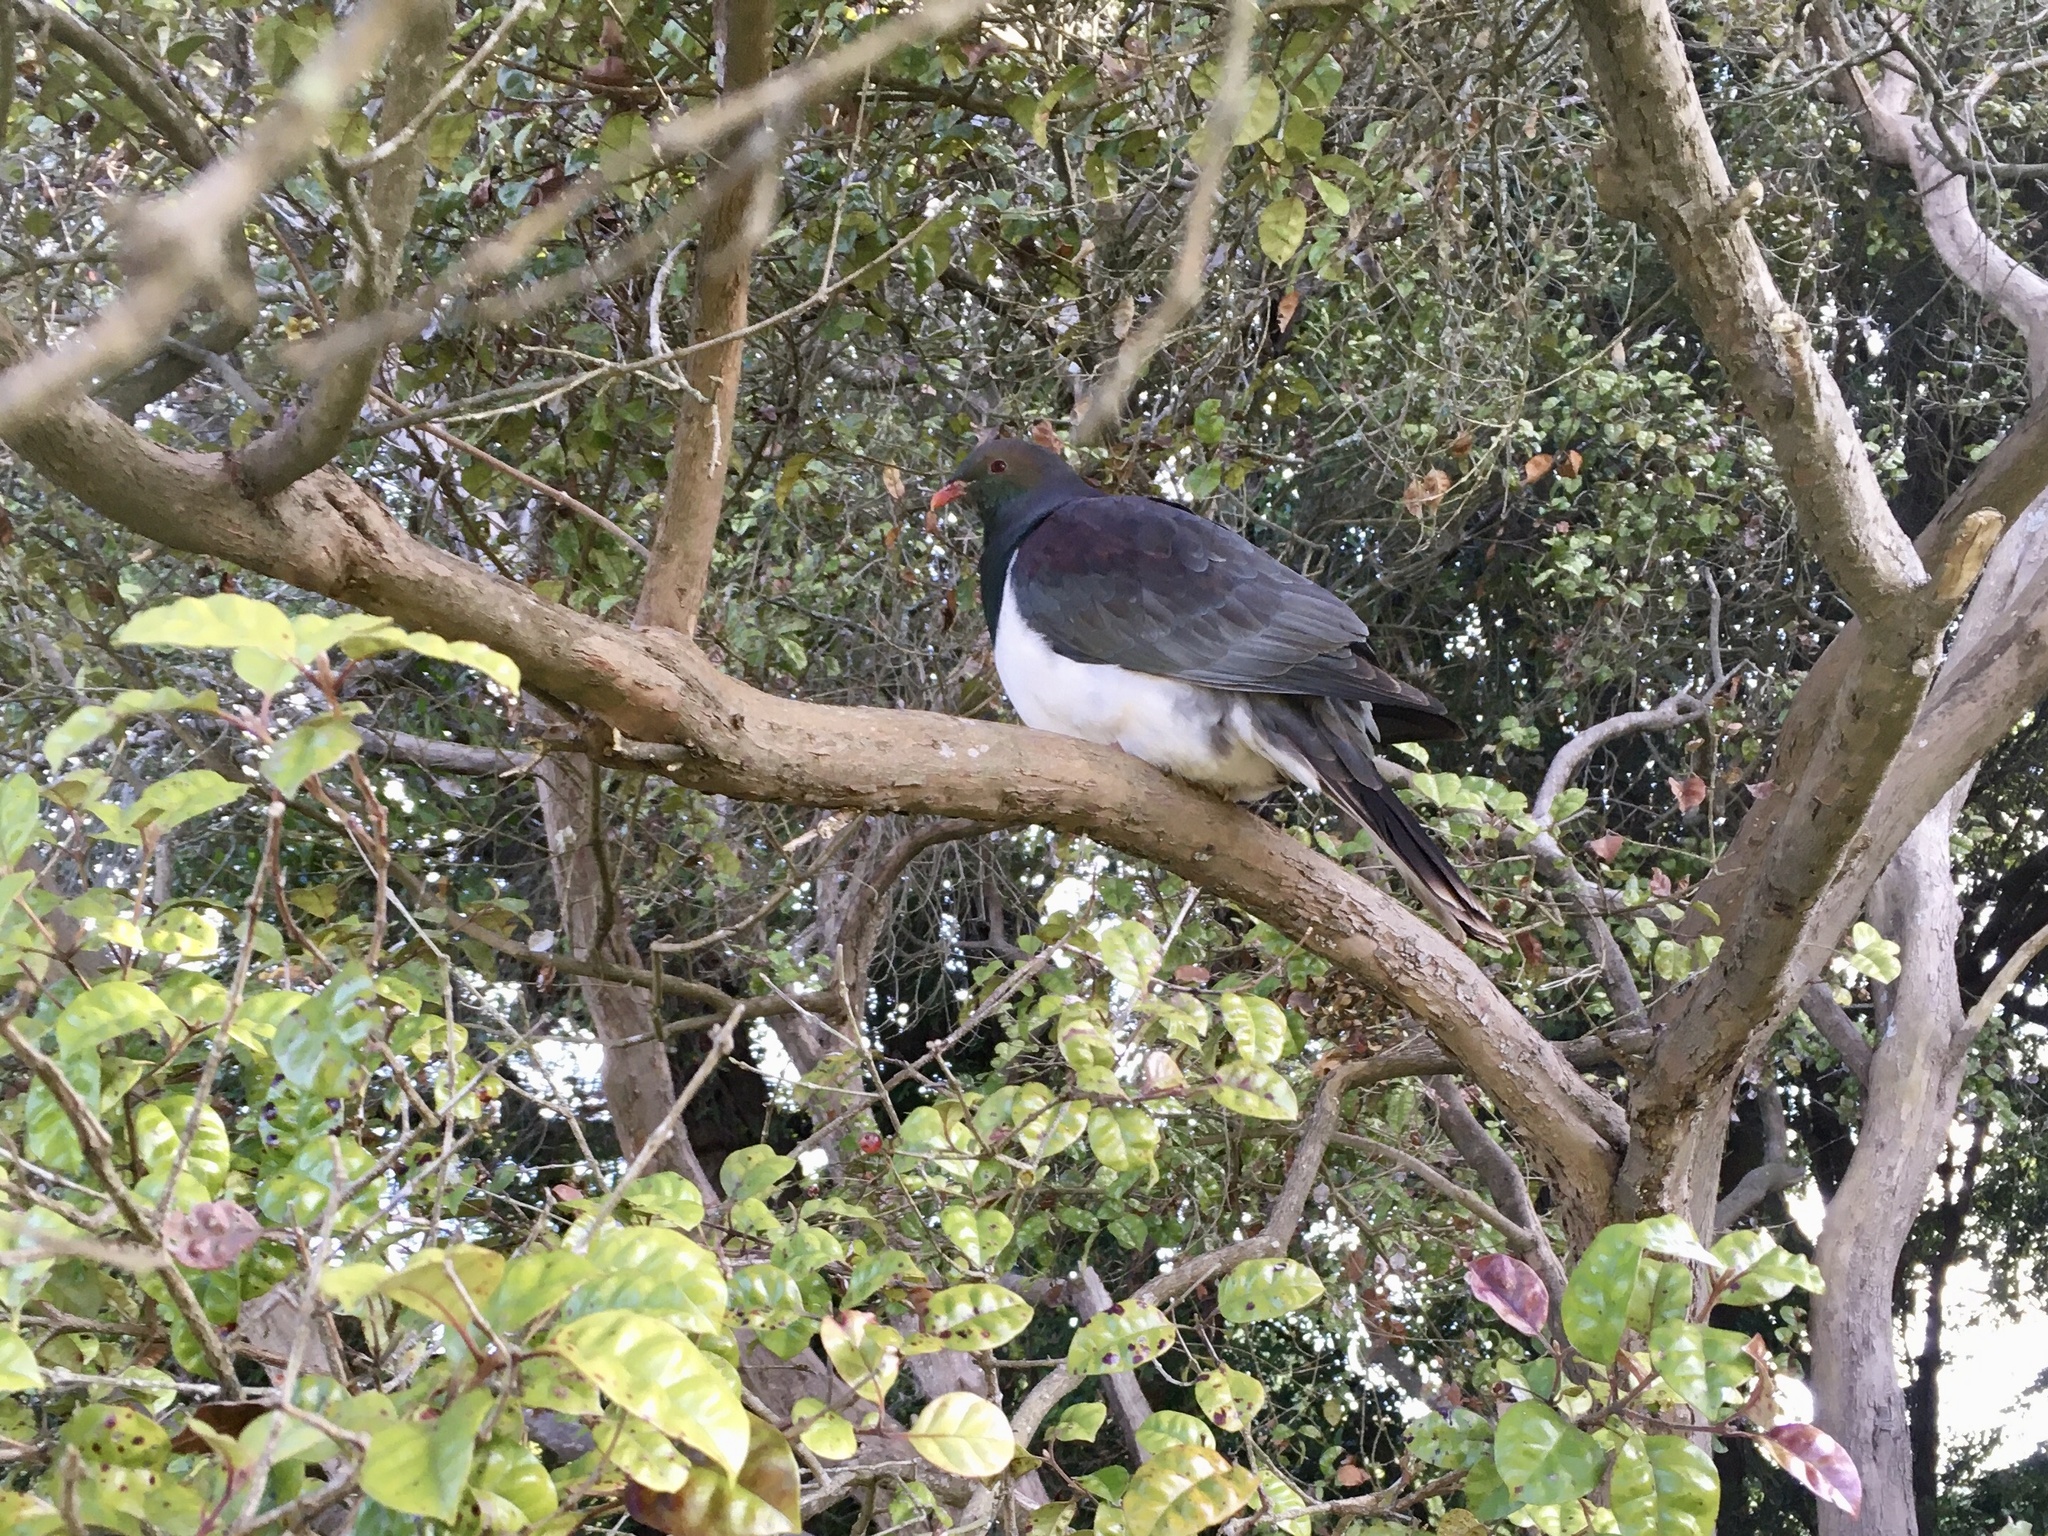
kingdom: Animalia
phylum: Chordata
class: Aves
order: Columbiformes
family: Columbidae
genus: Hemiphaga
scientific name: Hemiphaga novaeseelandiae
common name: New zealand pigeon
